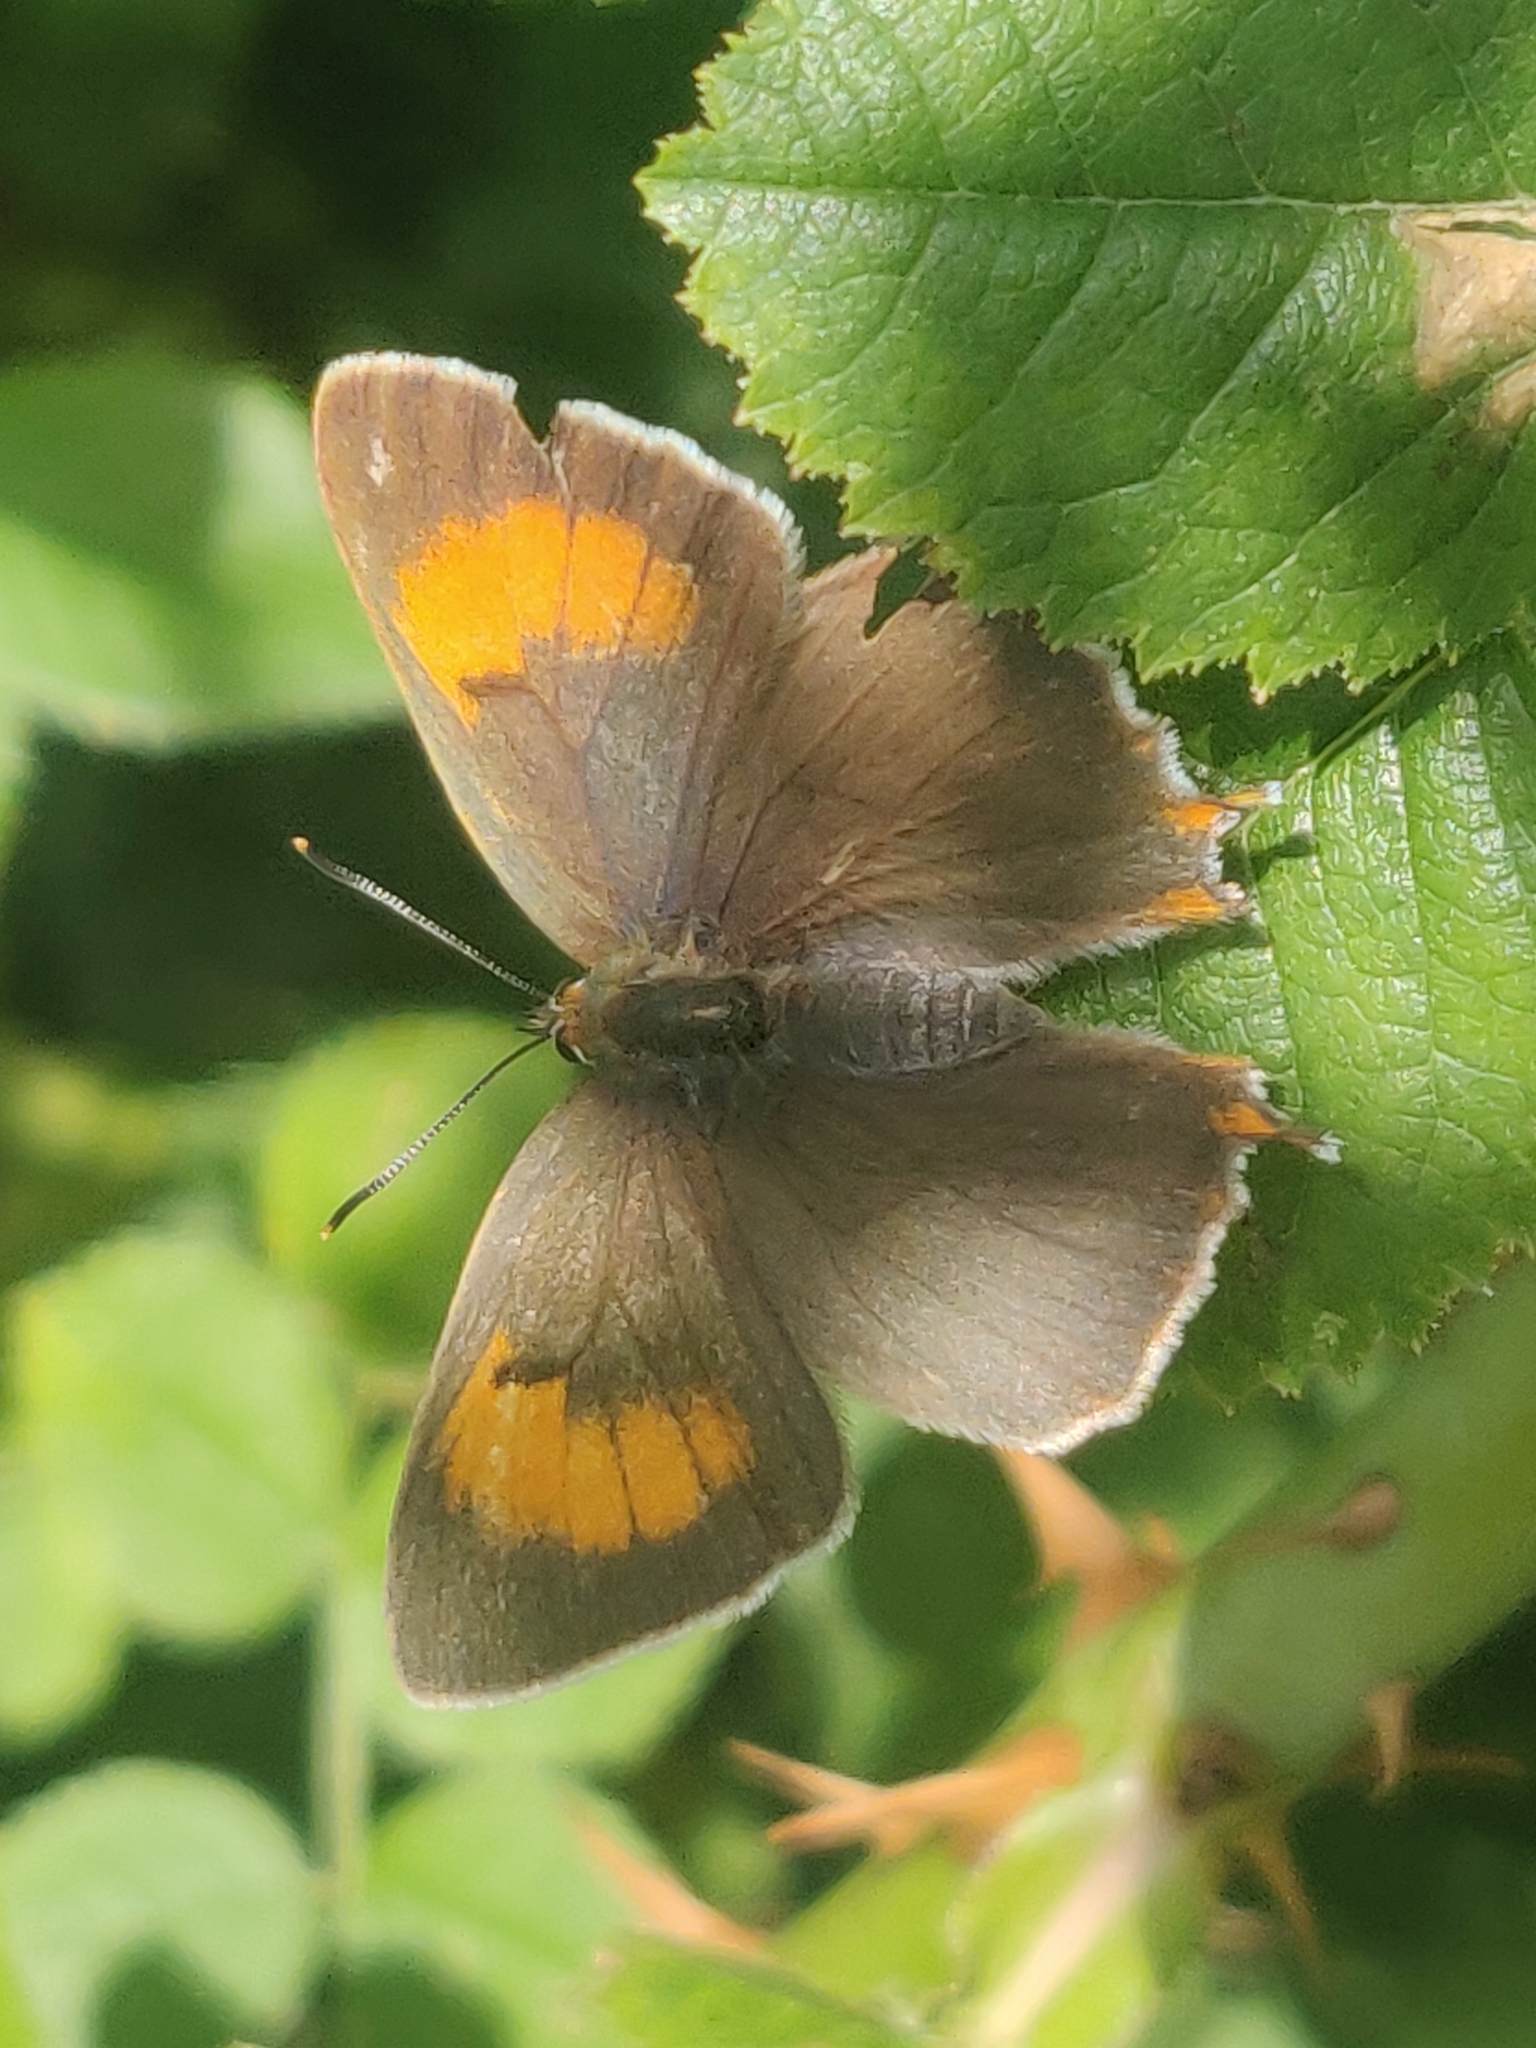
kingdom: Animalia
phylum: Arthropoda
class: Insecta
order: Lepidoptera
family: Lycaenidae
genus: Thecla
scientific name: Thecla betulae
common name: Brown hairstreak
